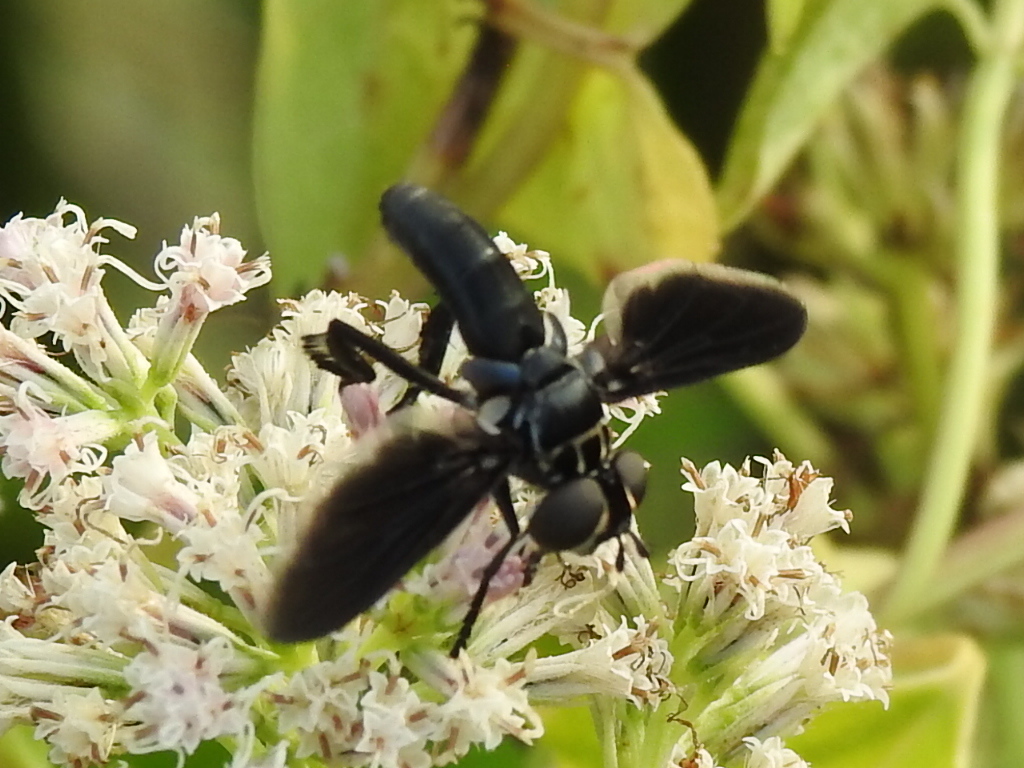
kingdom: Animalia
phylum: Arthropoda
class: Insecta
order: Diptera
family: Tachinidae
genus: Trichopoda
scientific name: Trichopoda lanipes
